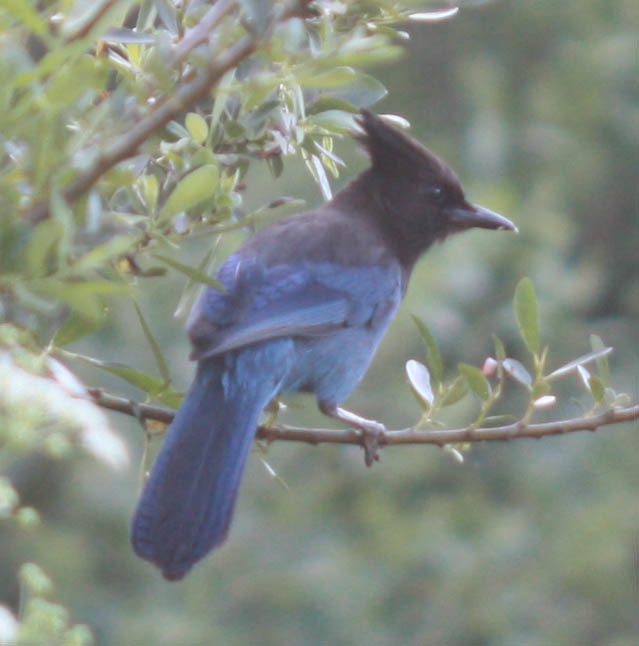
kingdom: Animalia
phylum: Chordata
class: Aves
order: Passeriformes
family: Corvidae
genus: Cyanocitta
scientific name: Cyanocitta stelleri
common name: Steller's jay
